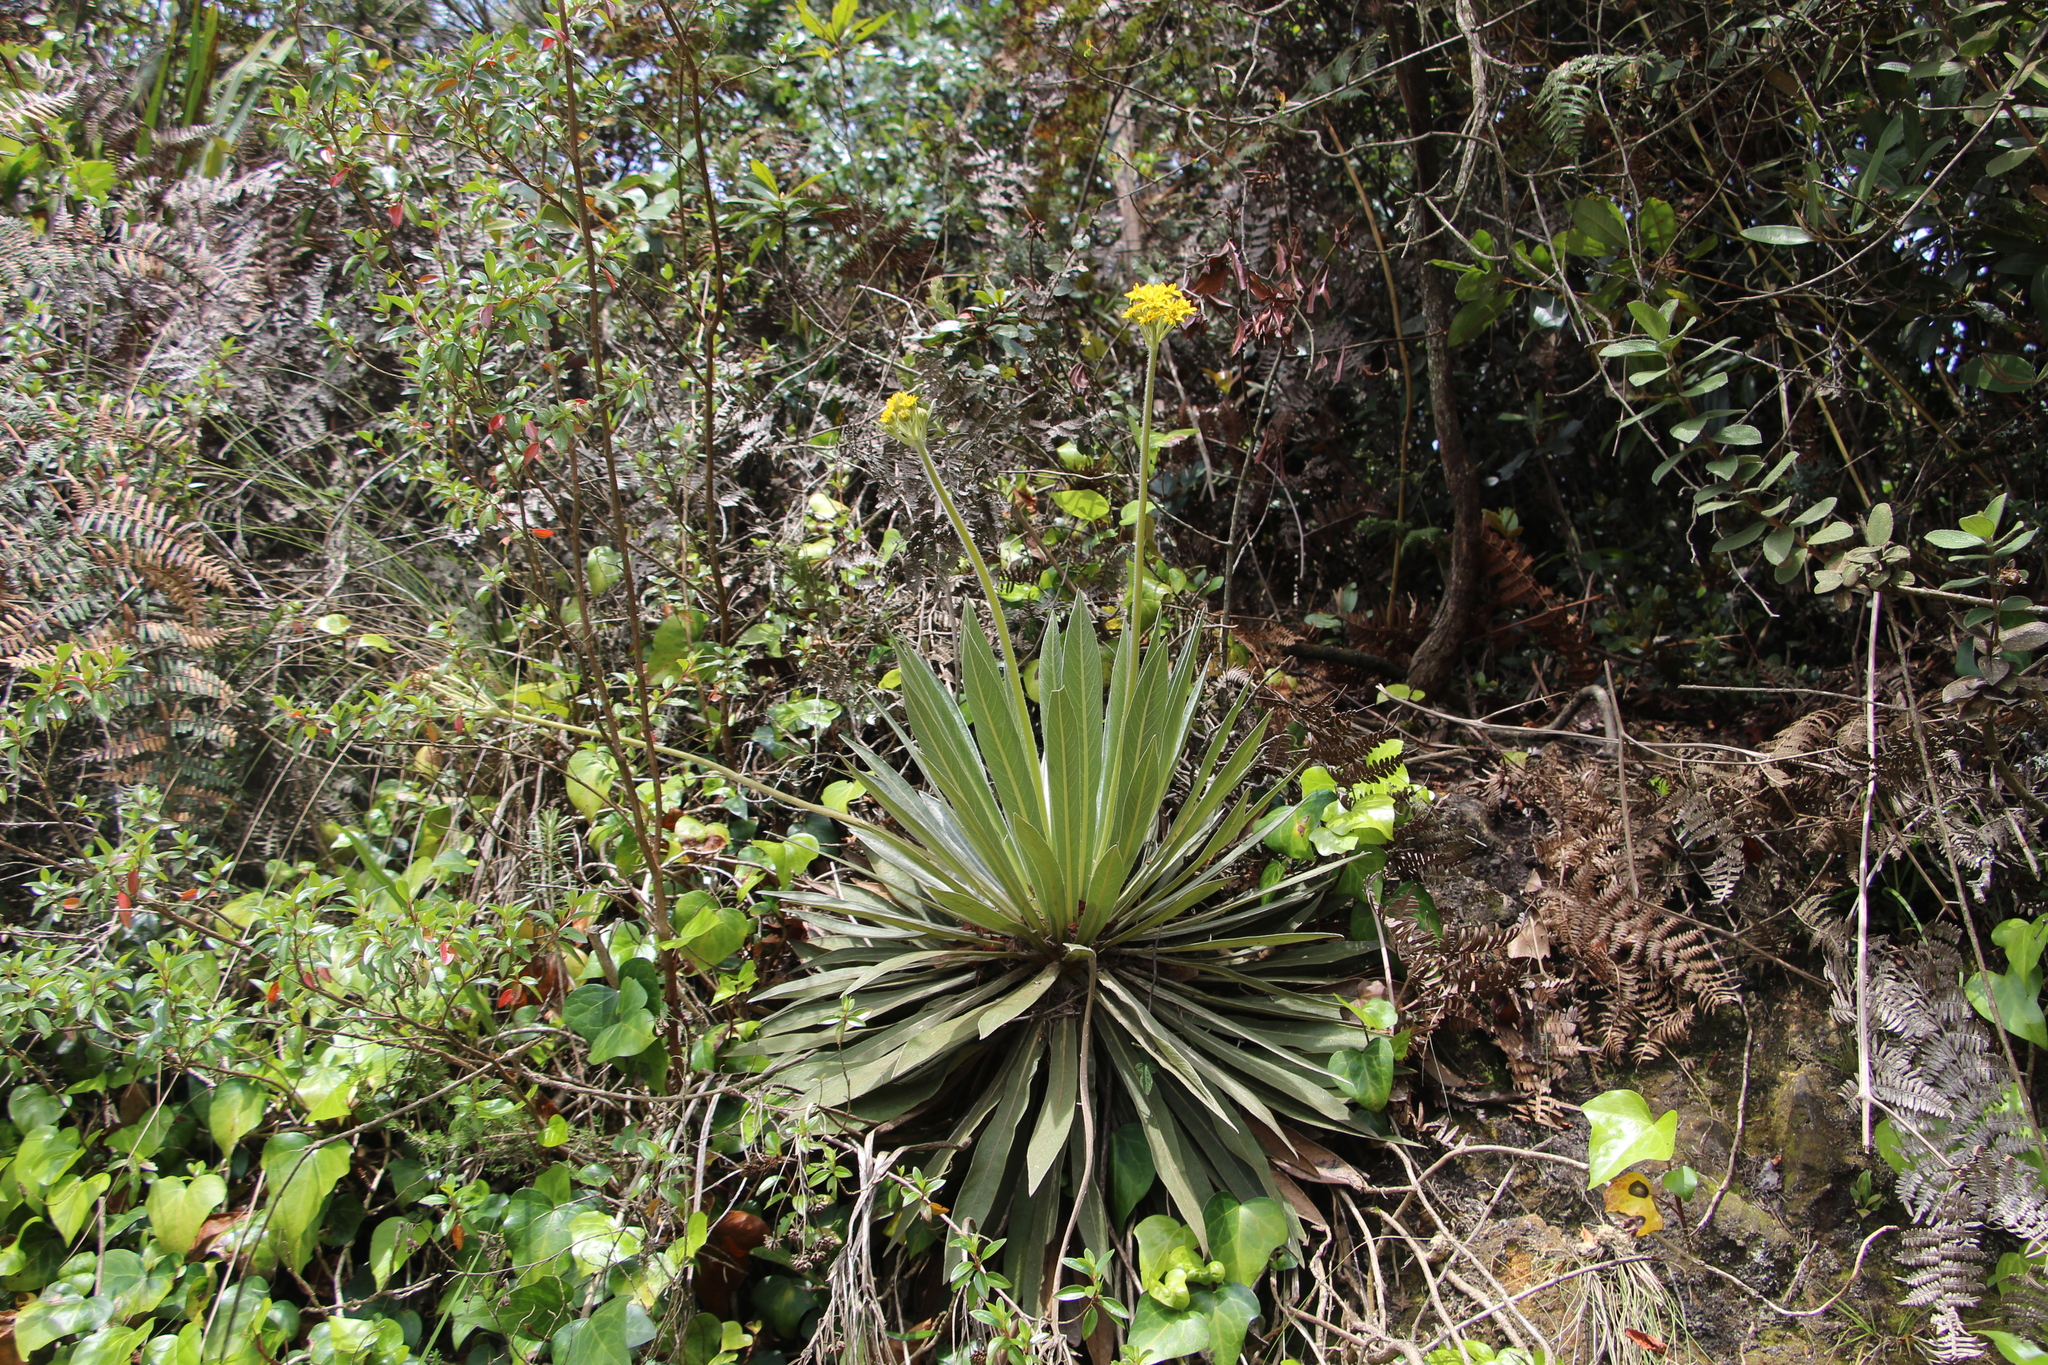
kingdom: Plantae
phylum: Tracheophyta
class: Magnoliopsida
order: Asterales
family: Asteraceae
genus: Espeletia
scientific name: Espeletia corymbosa
